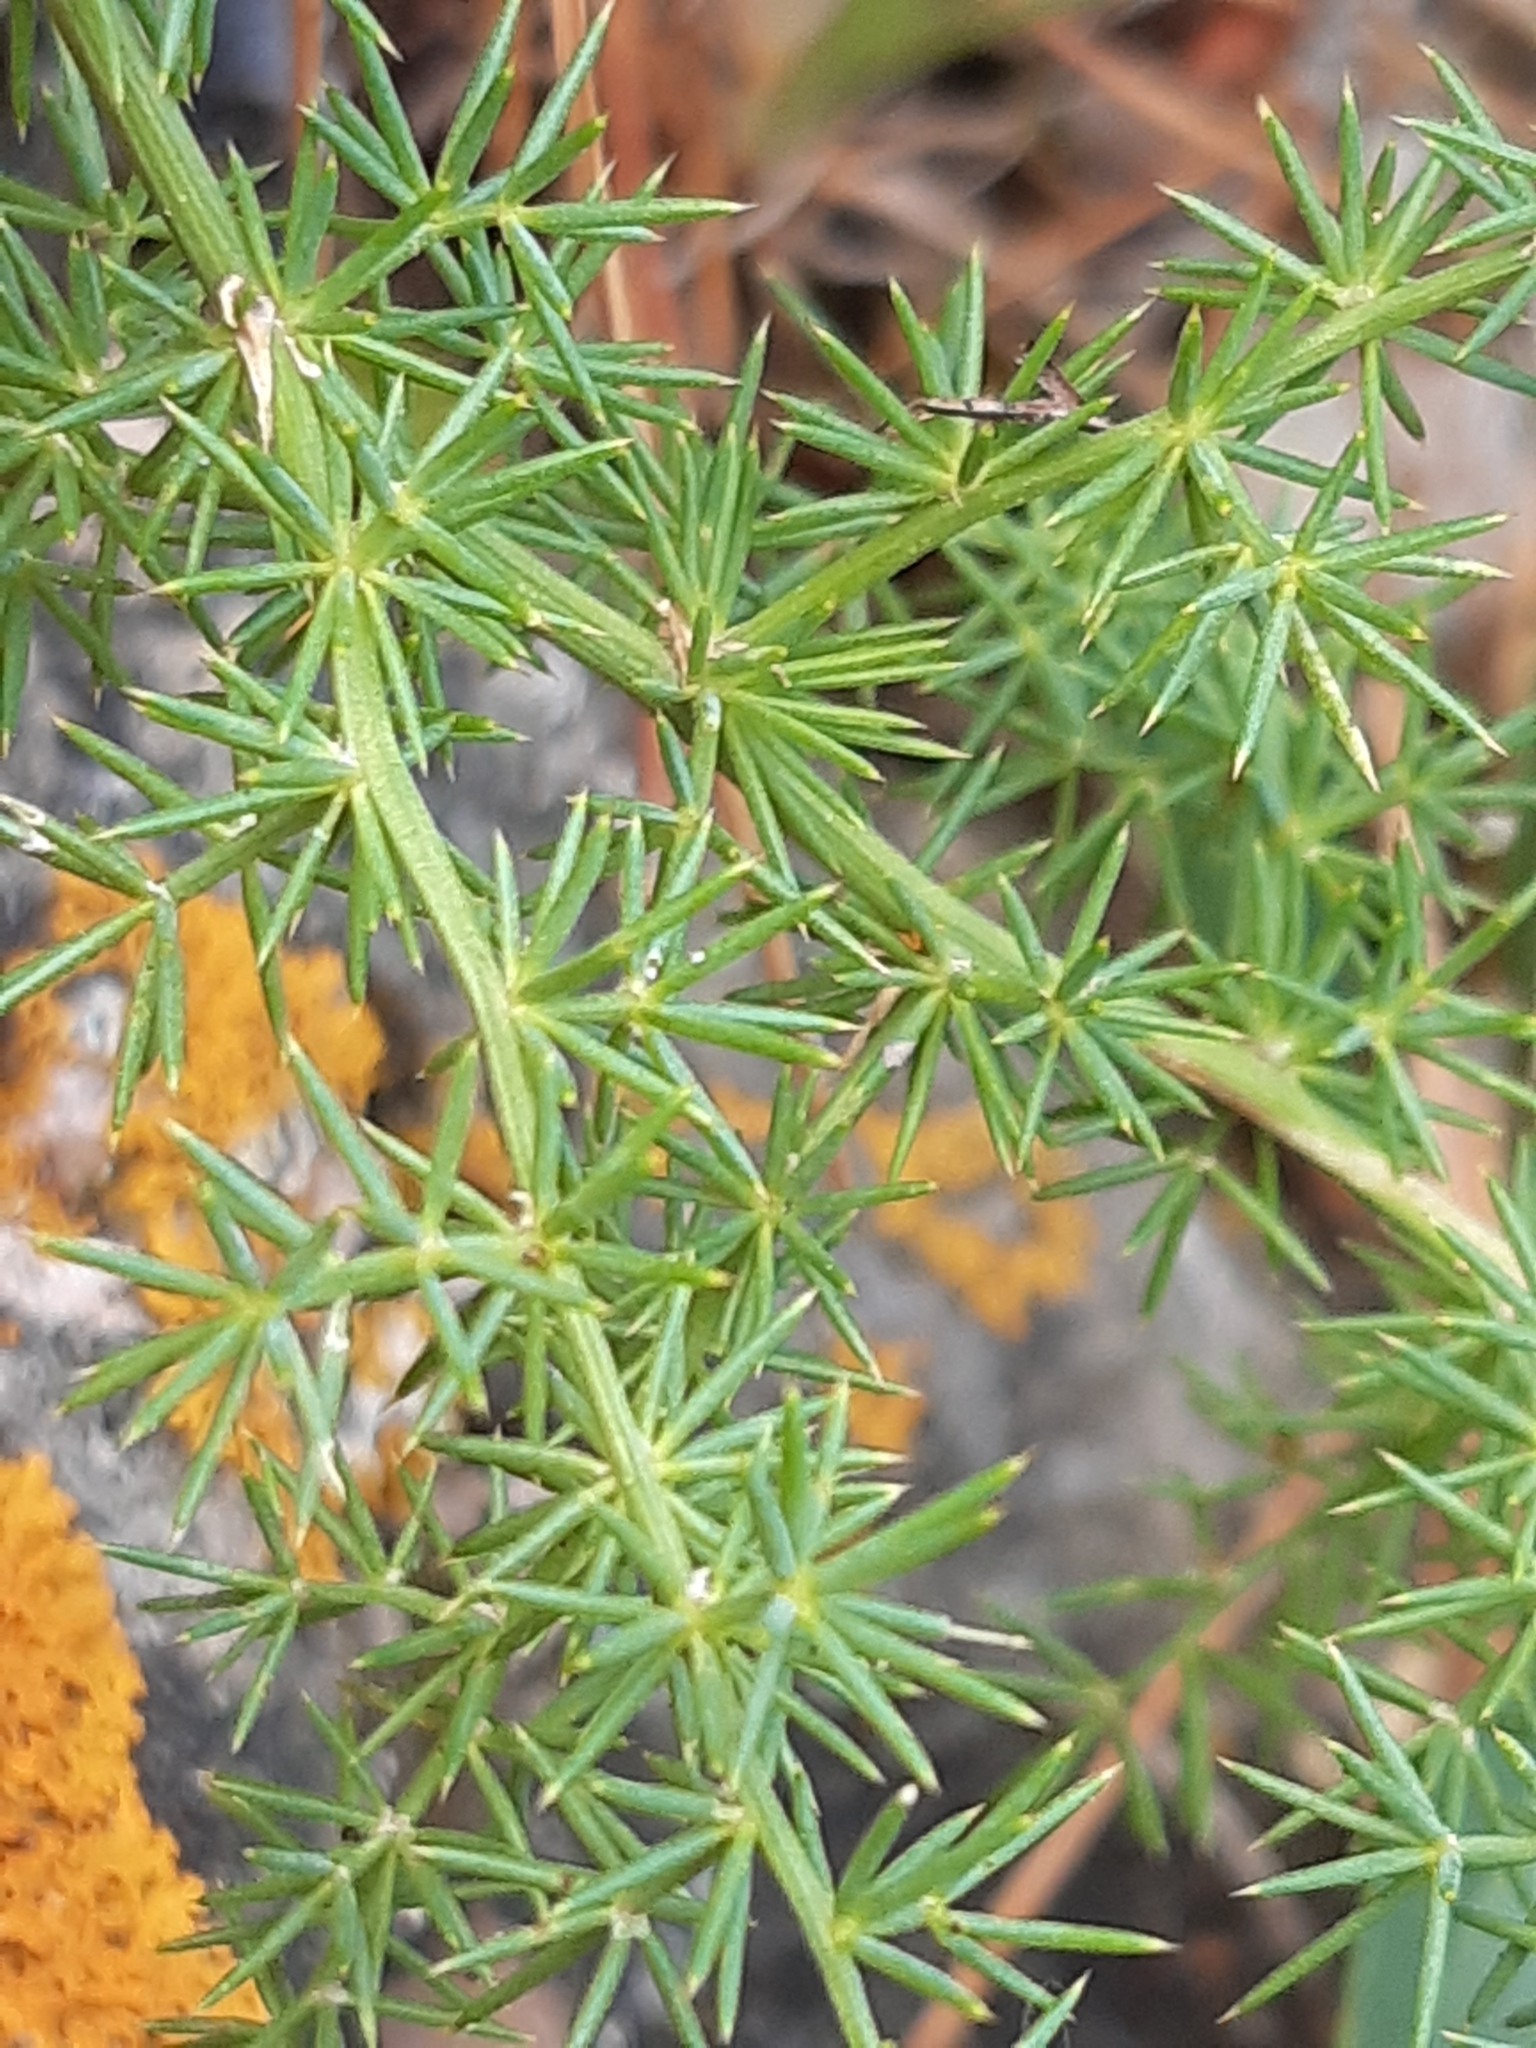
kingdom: Plantae
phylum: Tracheophyta
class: Liliopsida
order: Asparagales
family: Asparagaceae
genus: Asparagus
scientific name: Asparagus acutifolius
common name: Wild asparagus
